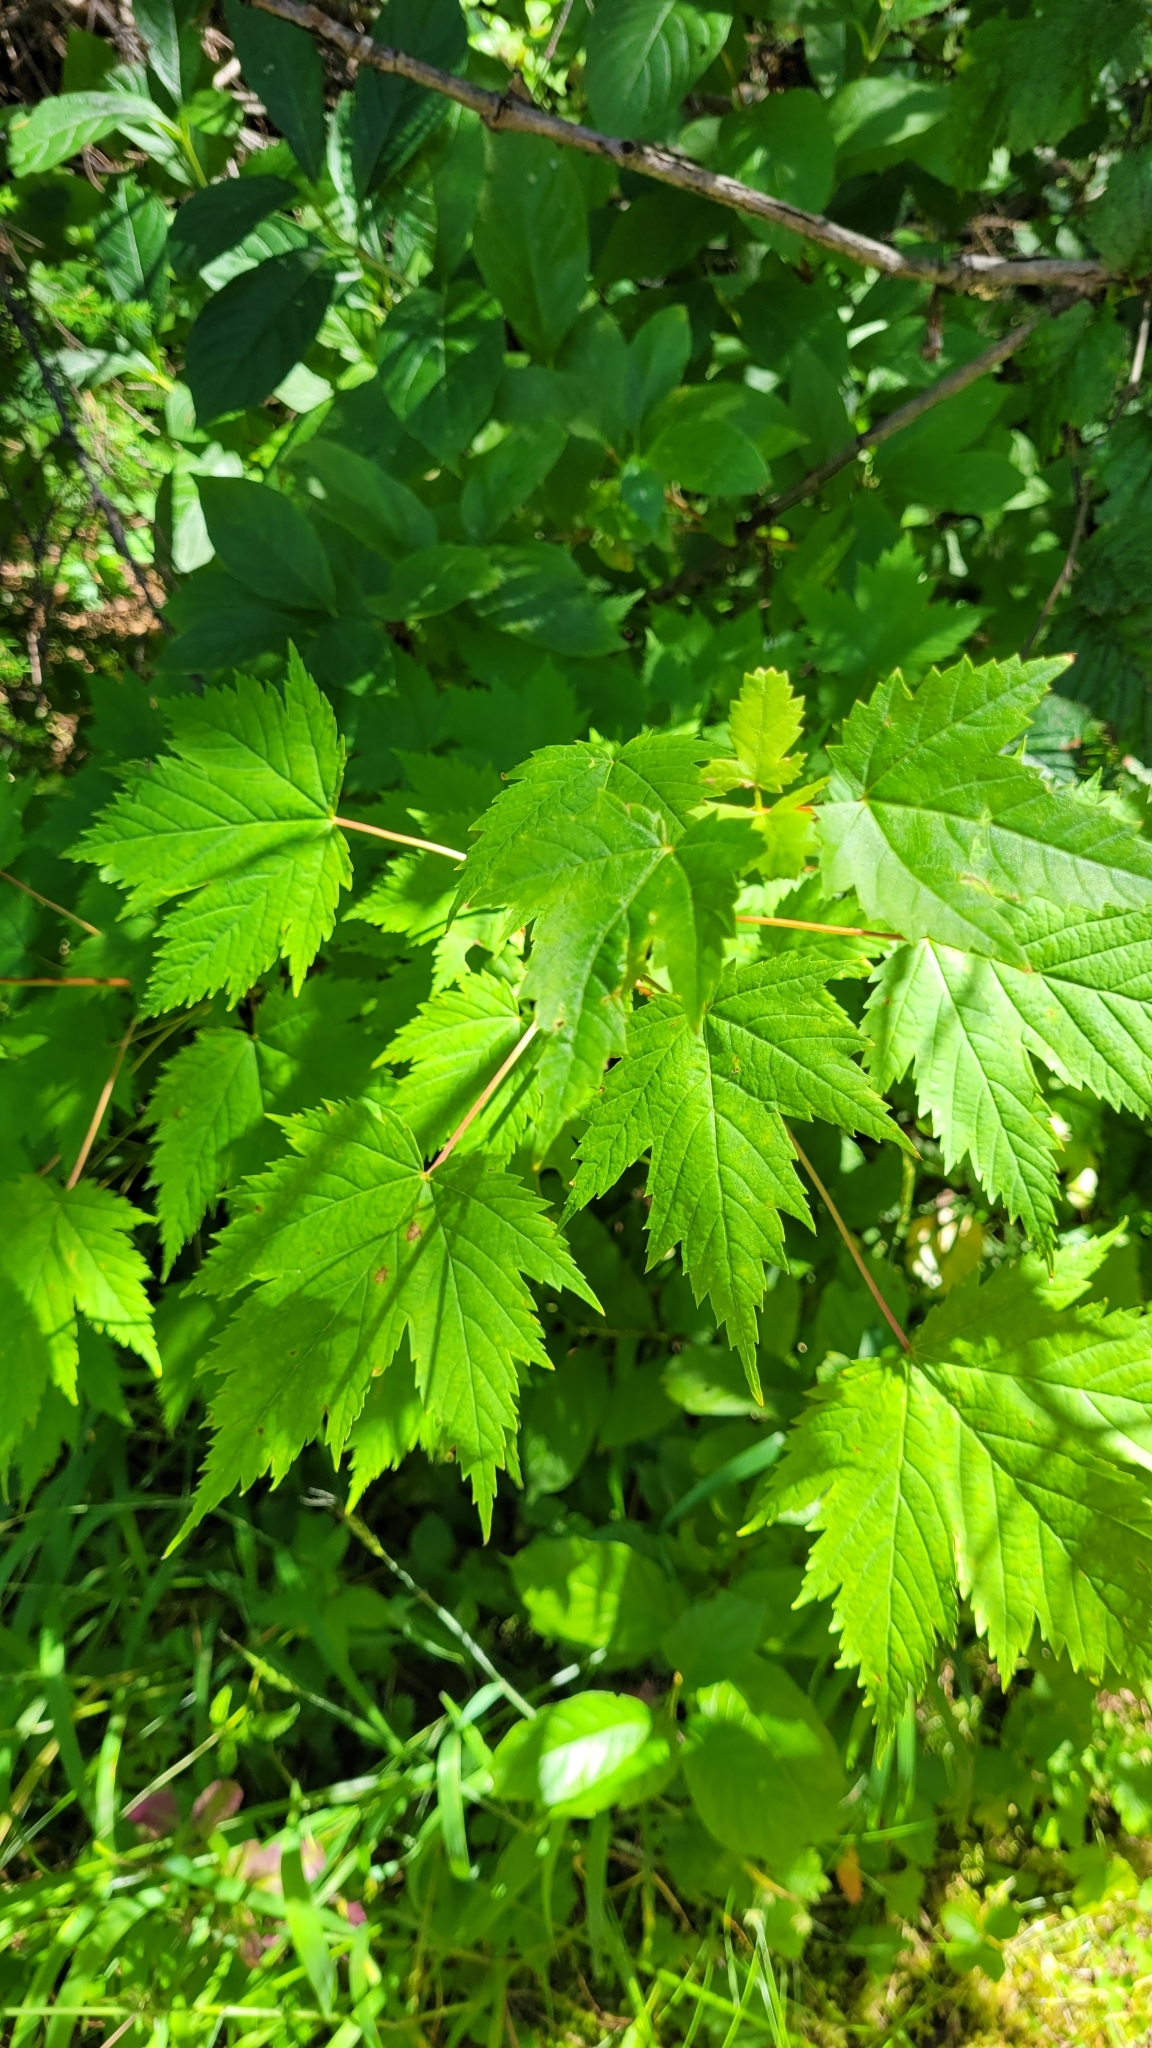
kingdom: Plantae
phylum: Tracheophyta
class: Magnoliopsida
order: Sapindales
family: Sapindaceae
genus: Acer
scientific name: Acer glabrum
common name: Rocky mountain maple
